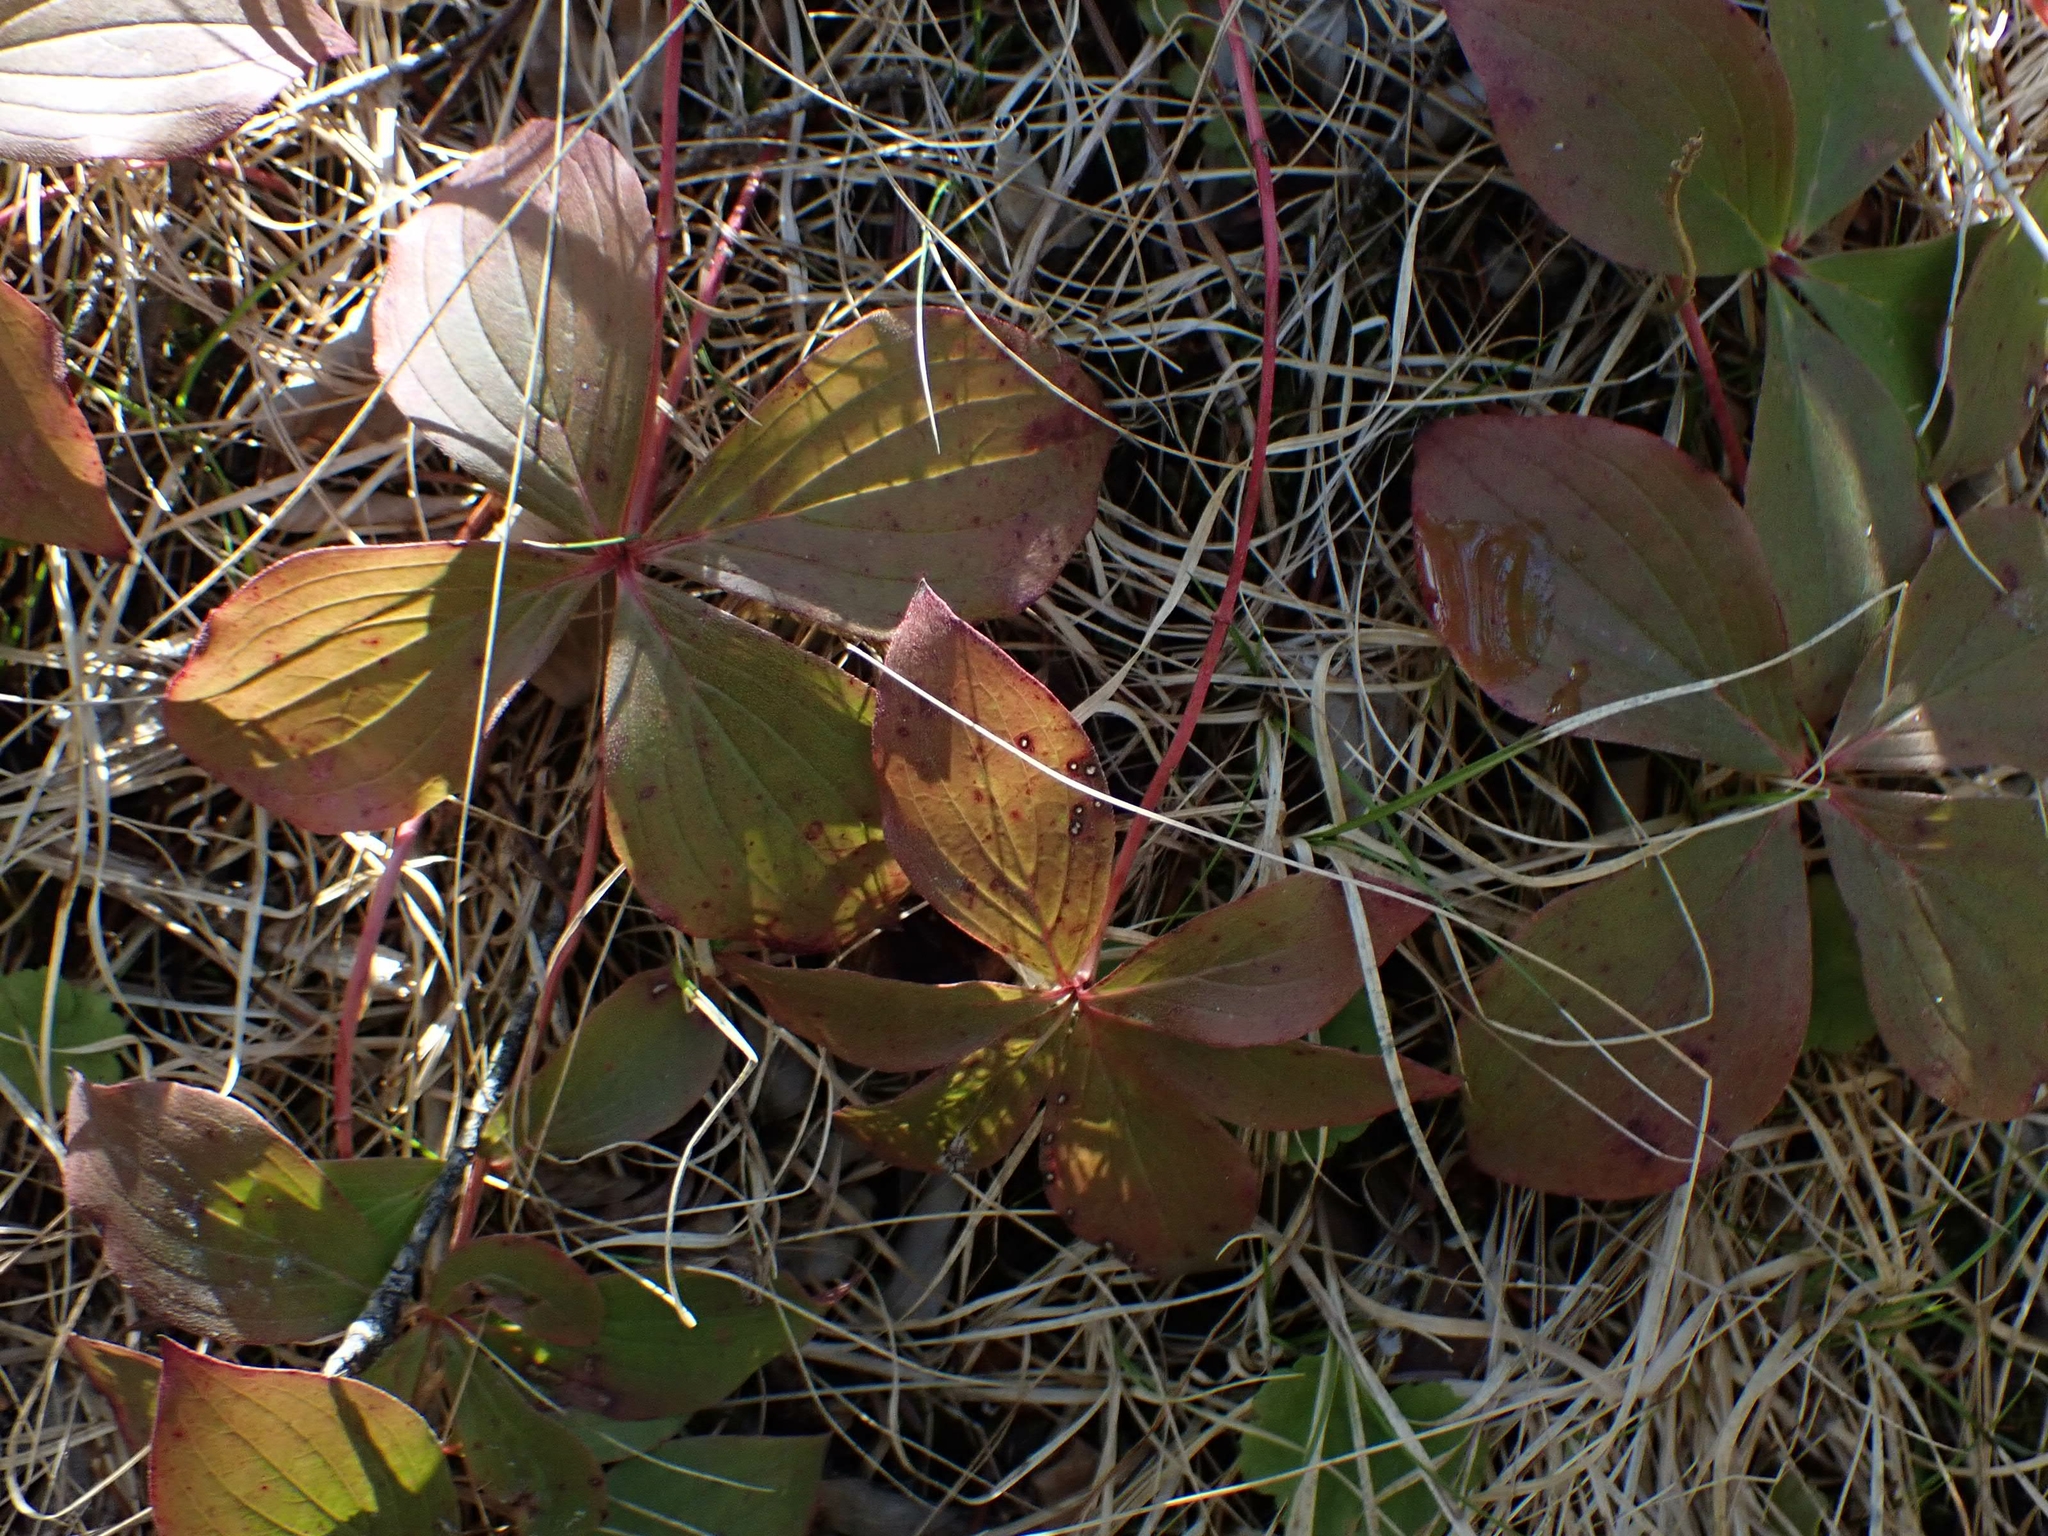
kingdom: Plantae
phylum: Tracheophyta
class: Magnoliopsida
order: Cornales
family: Cornaceae
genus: Cornus
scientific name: Cornus canadensis
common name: Creeping dogwood
